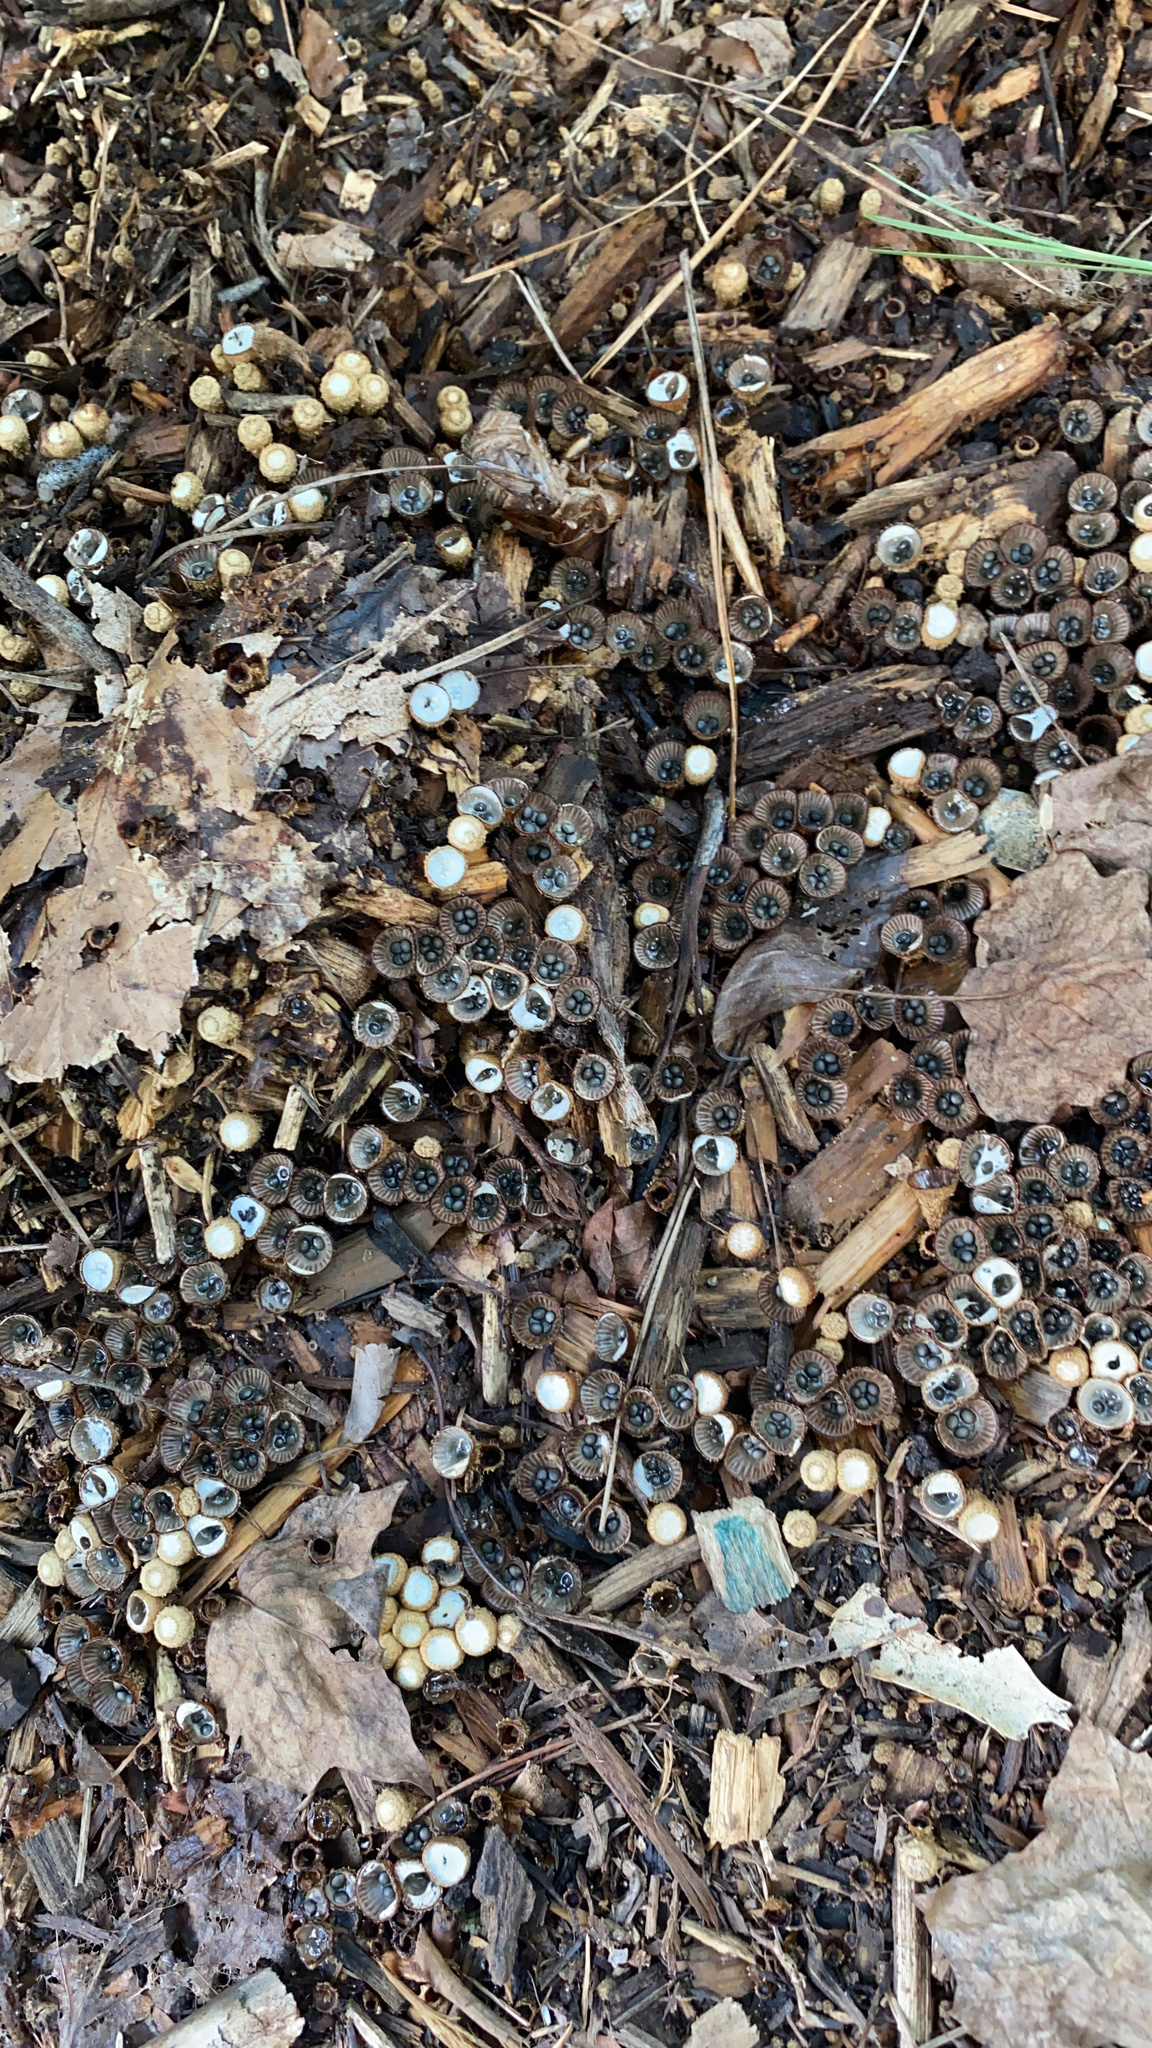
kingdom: Fungi
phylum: Basidiomycota
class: Agaricomycetes
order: Agaricales
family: Agaricaceae
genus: Cyathus
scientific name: Cyathus striatus
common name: Fluted bird's nest
